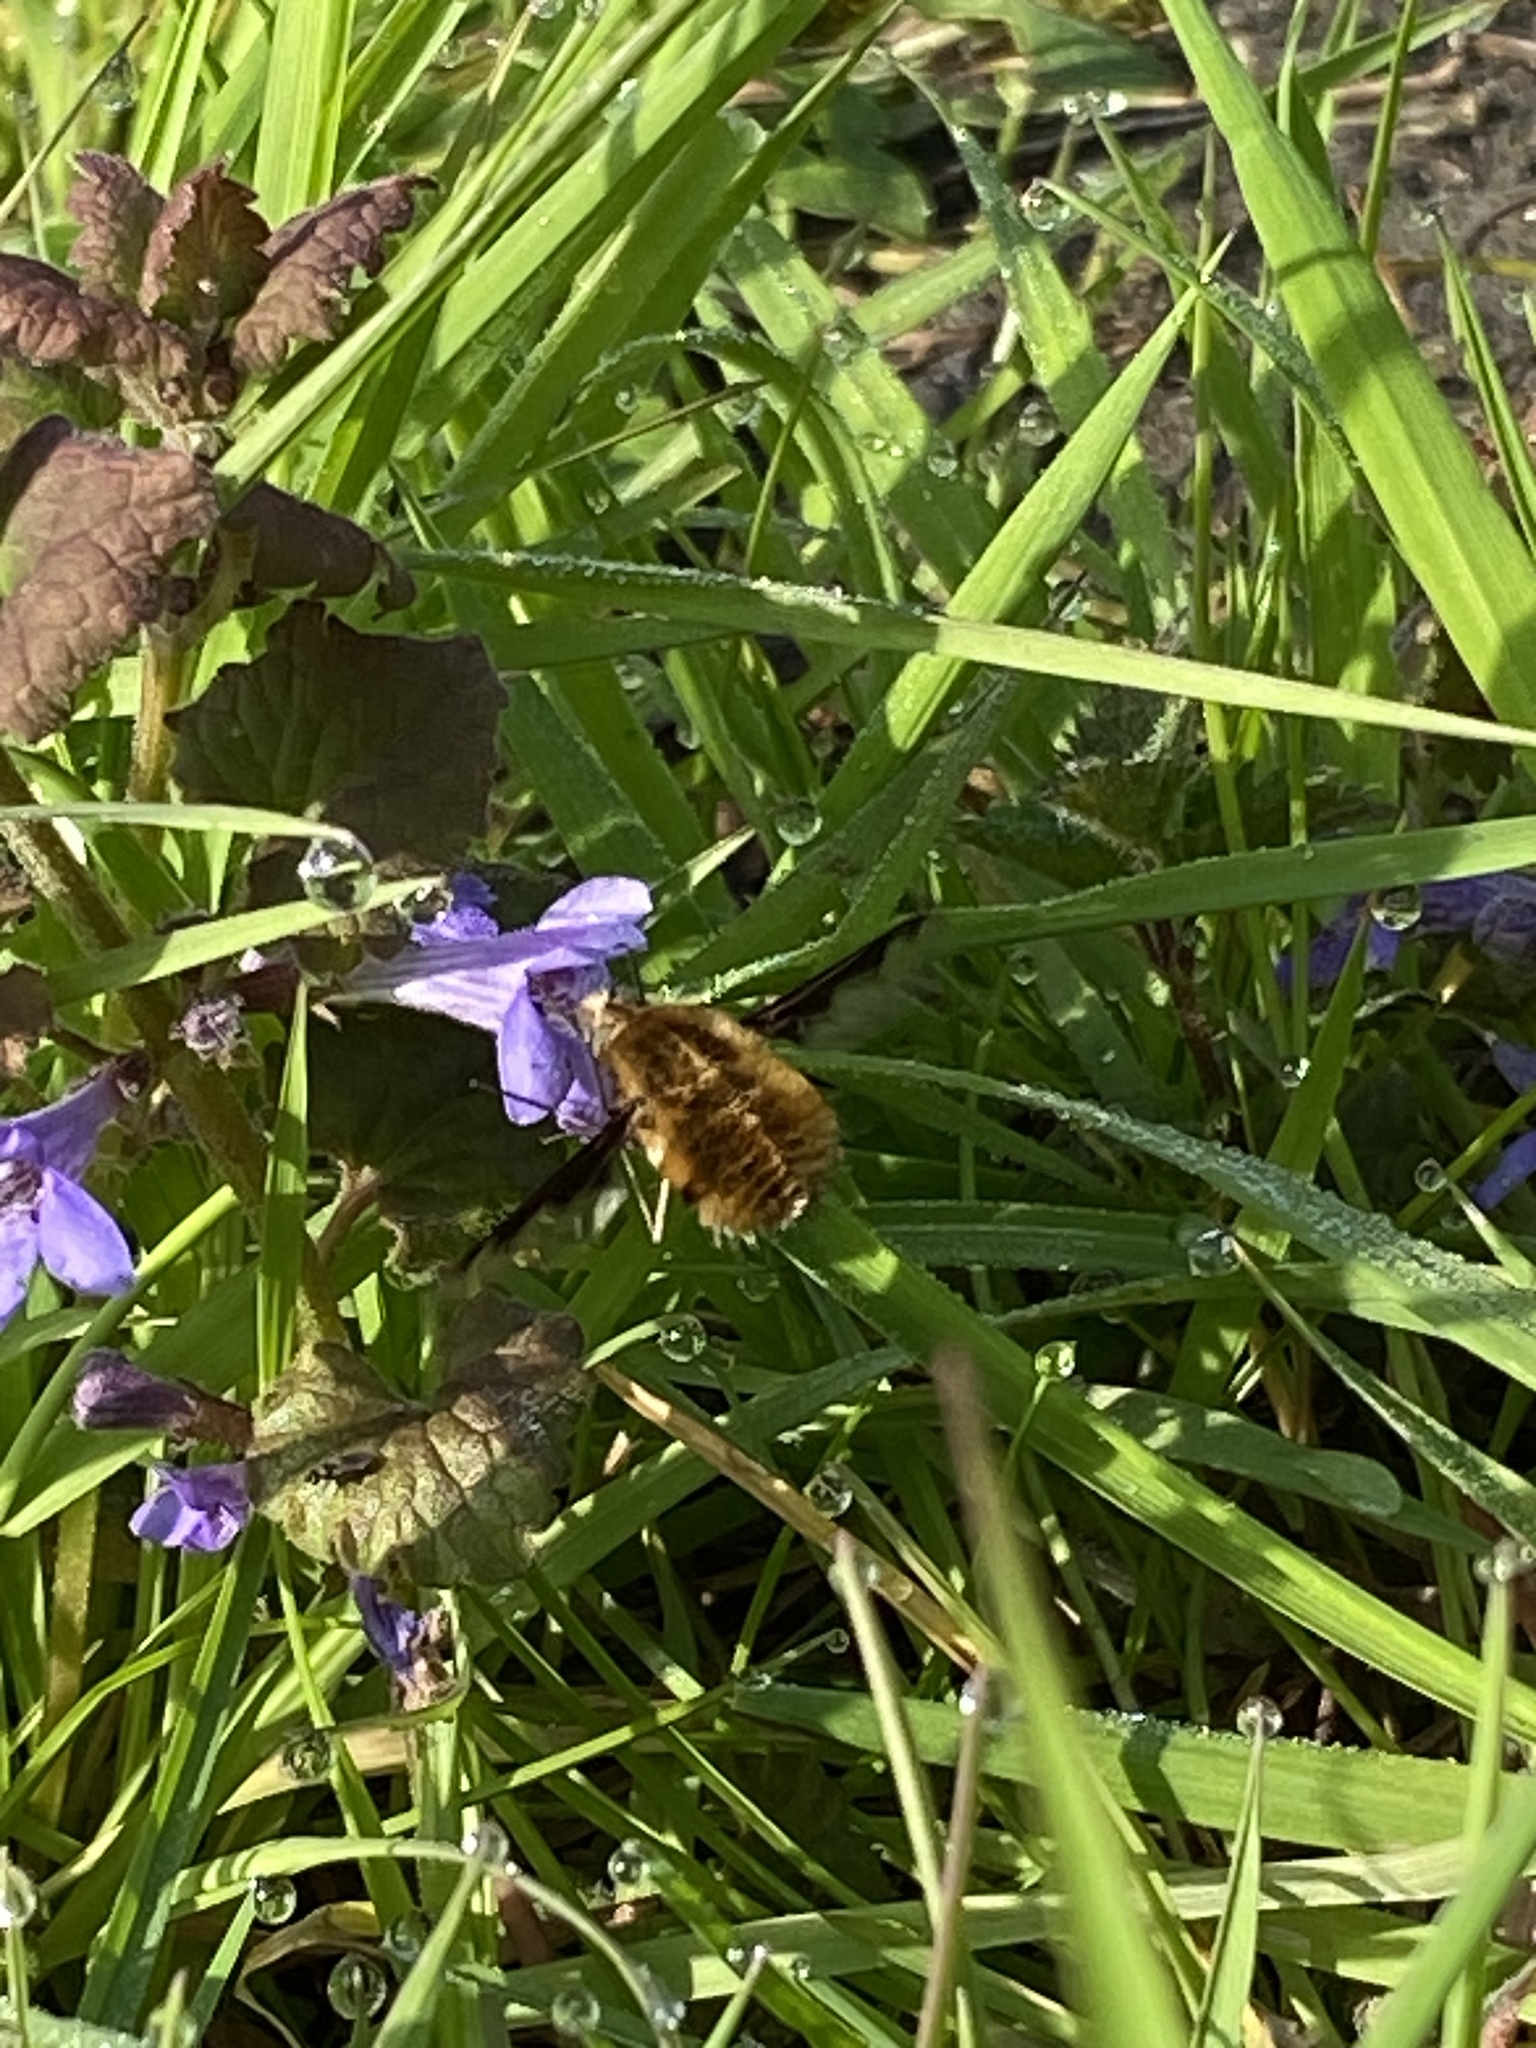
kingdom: Animalia
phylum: Arthropoda
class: Insecta
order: Diptera
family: Bombyliidae
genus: Bombylius
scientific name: Bombylius major
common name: Bee fly
